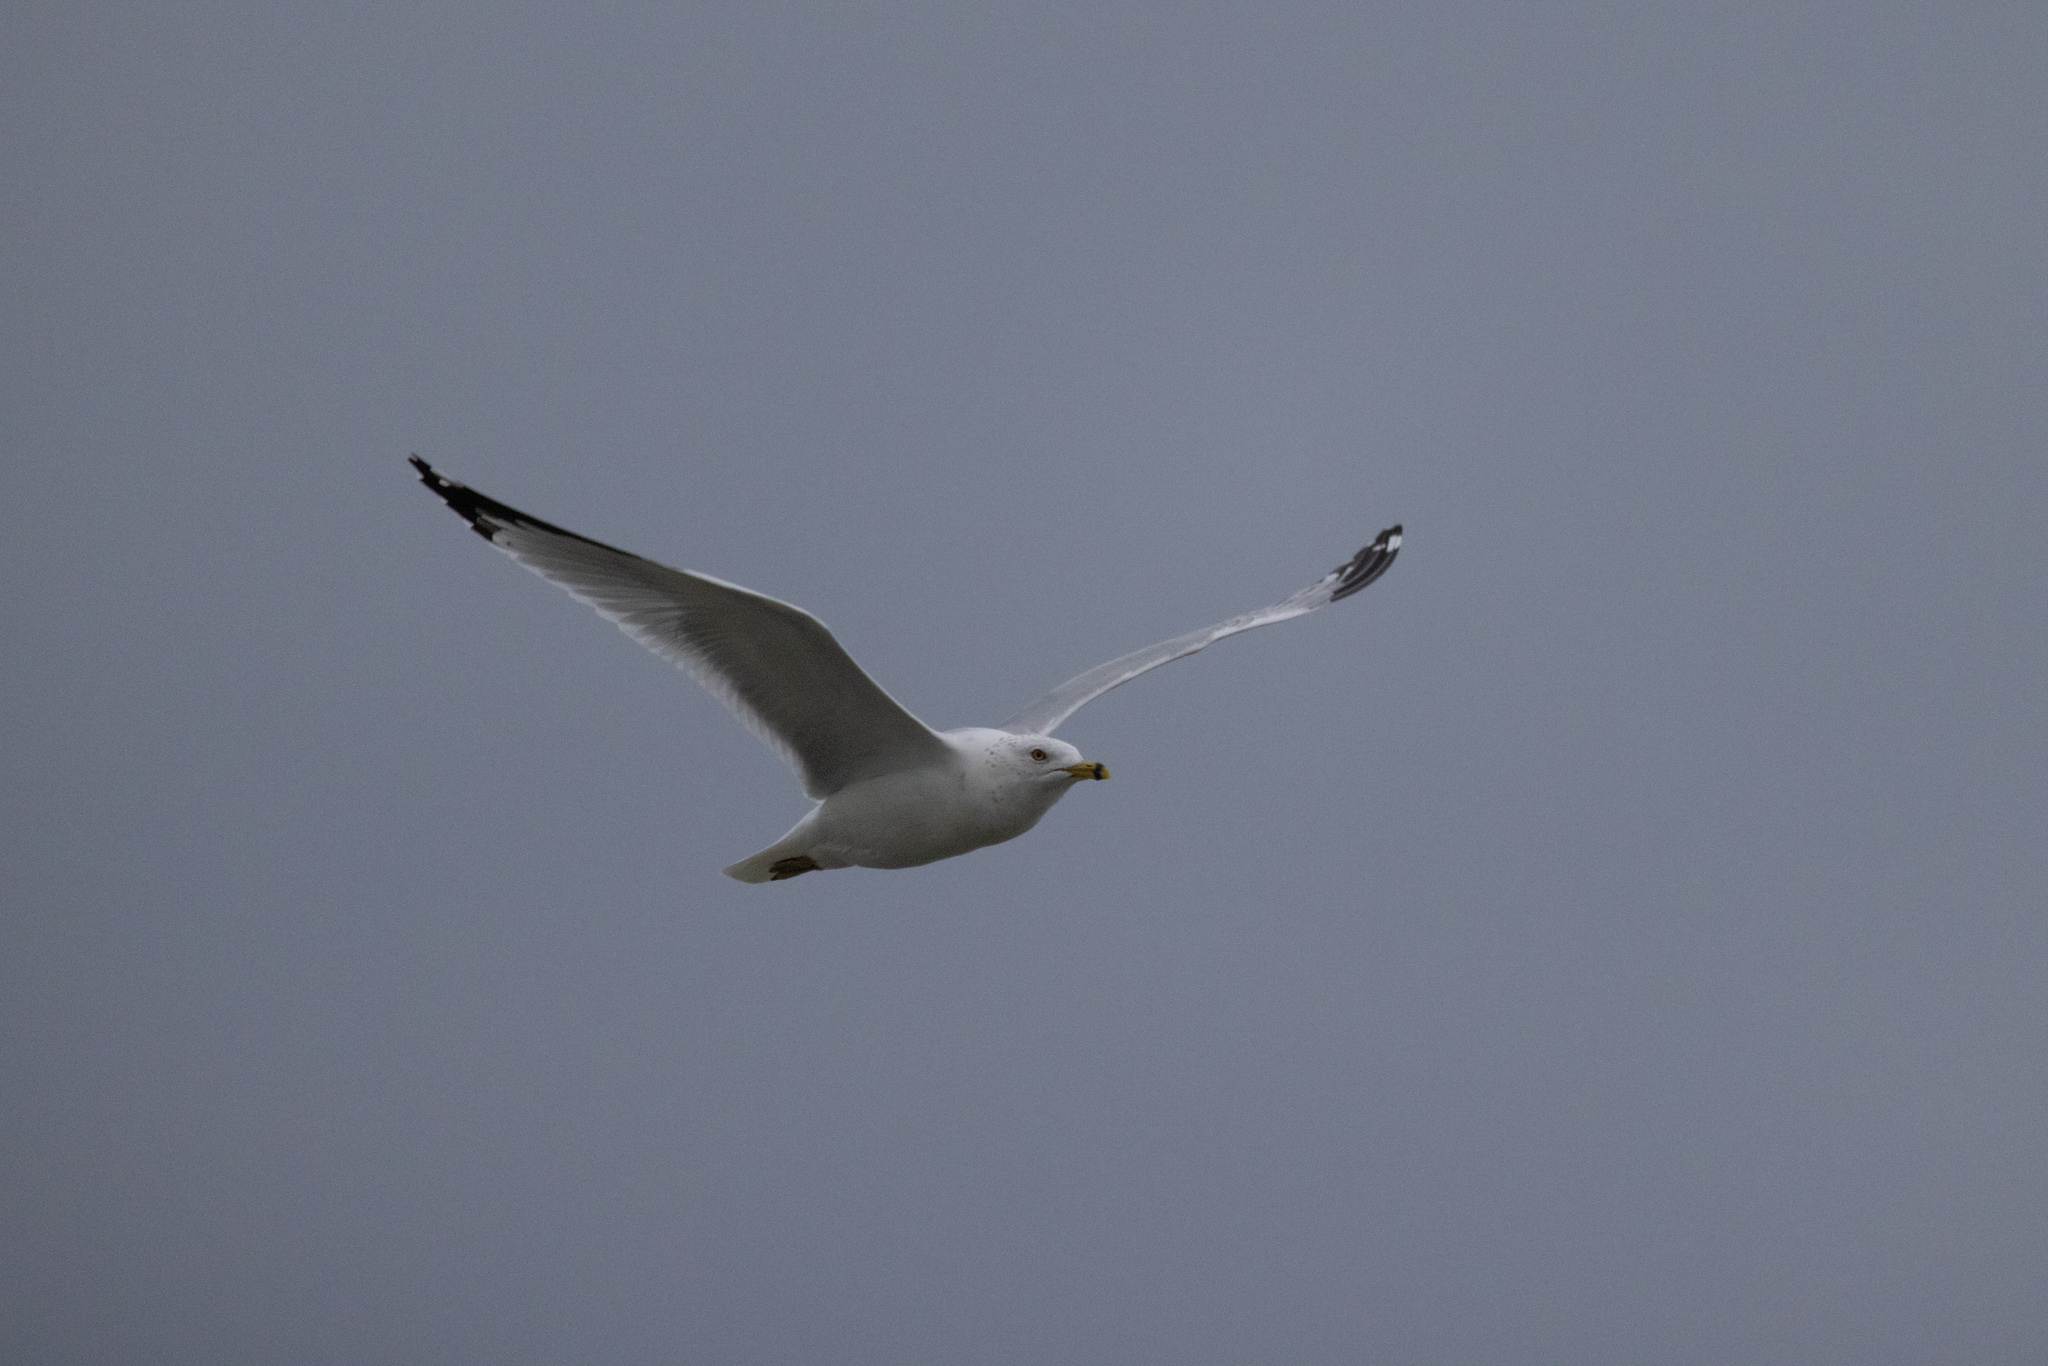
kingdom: Animalia
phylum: Chordata
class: Aves
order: Charadriiformes
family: Laridae
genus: Larus
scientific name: Larus delawarensis
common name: Ring-billed gull
